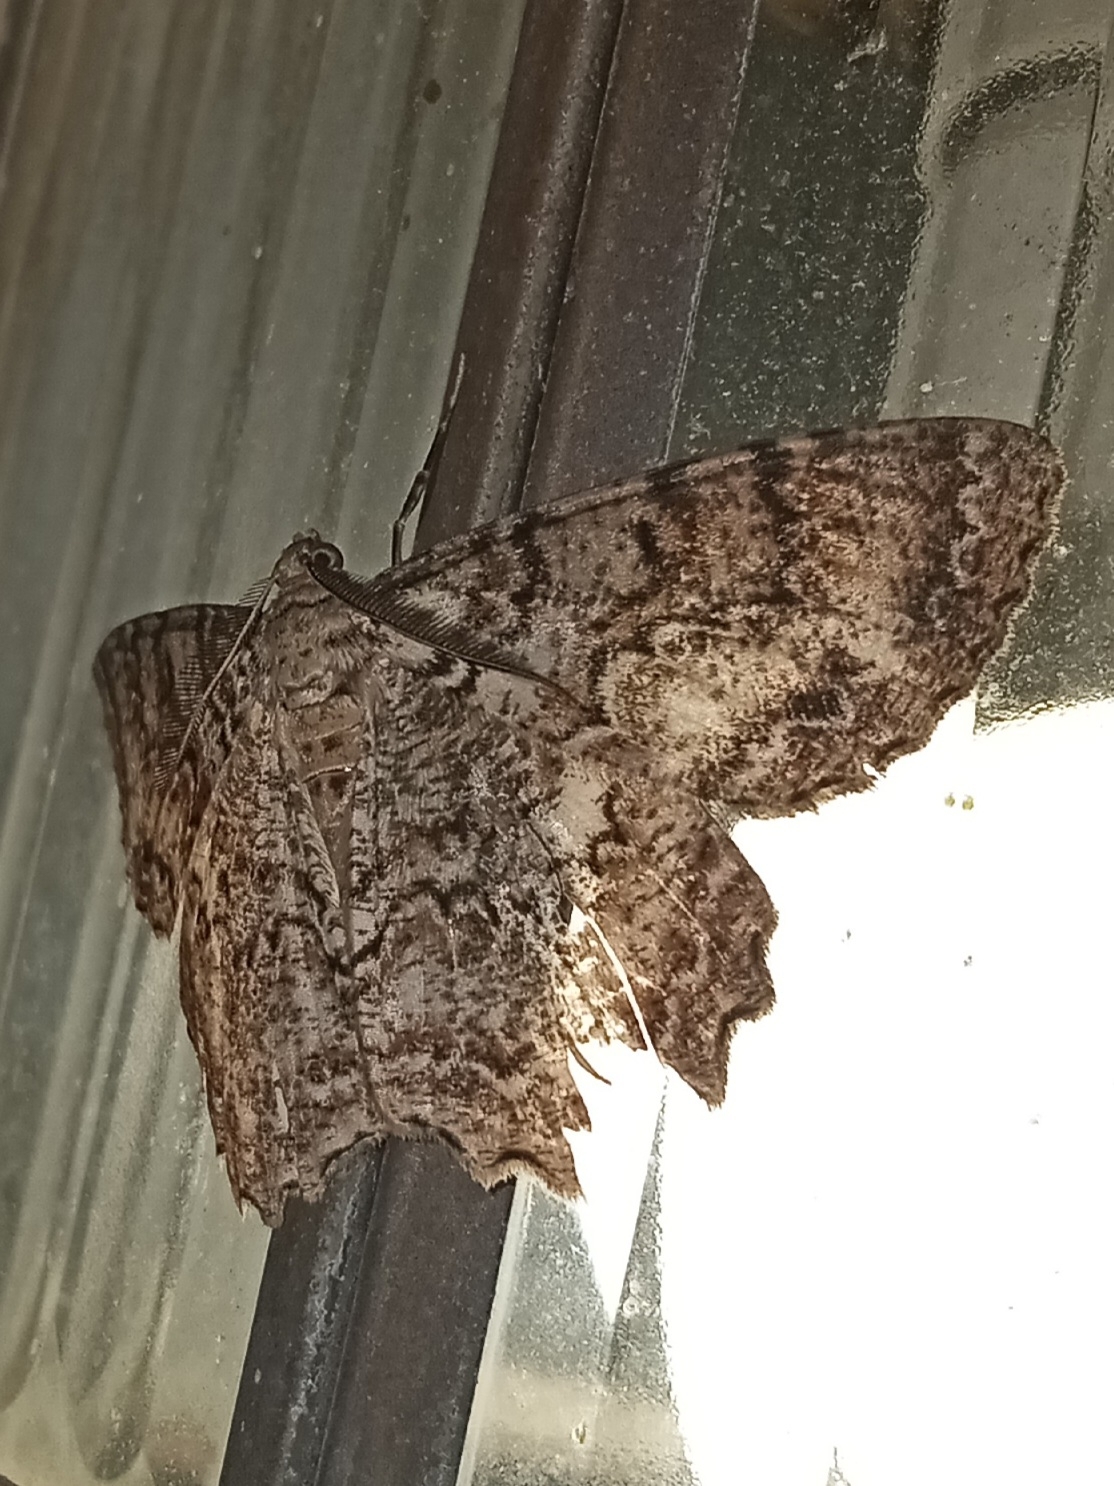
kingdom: Animalia
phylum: Arthropoda
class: Insecta
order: Lepidoptera
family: Geometridae
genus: Epimecis
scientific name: Epimecis hortaria
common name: Tulip-tree beauty
